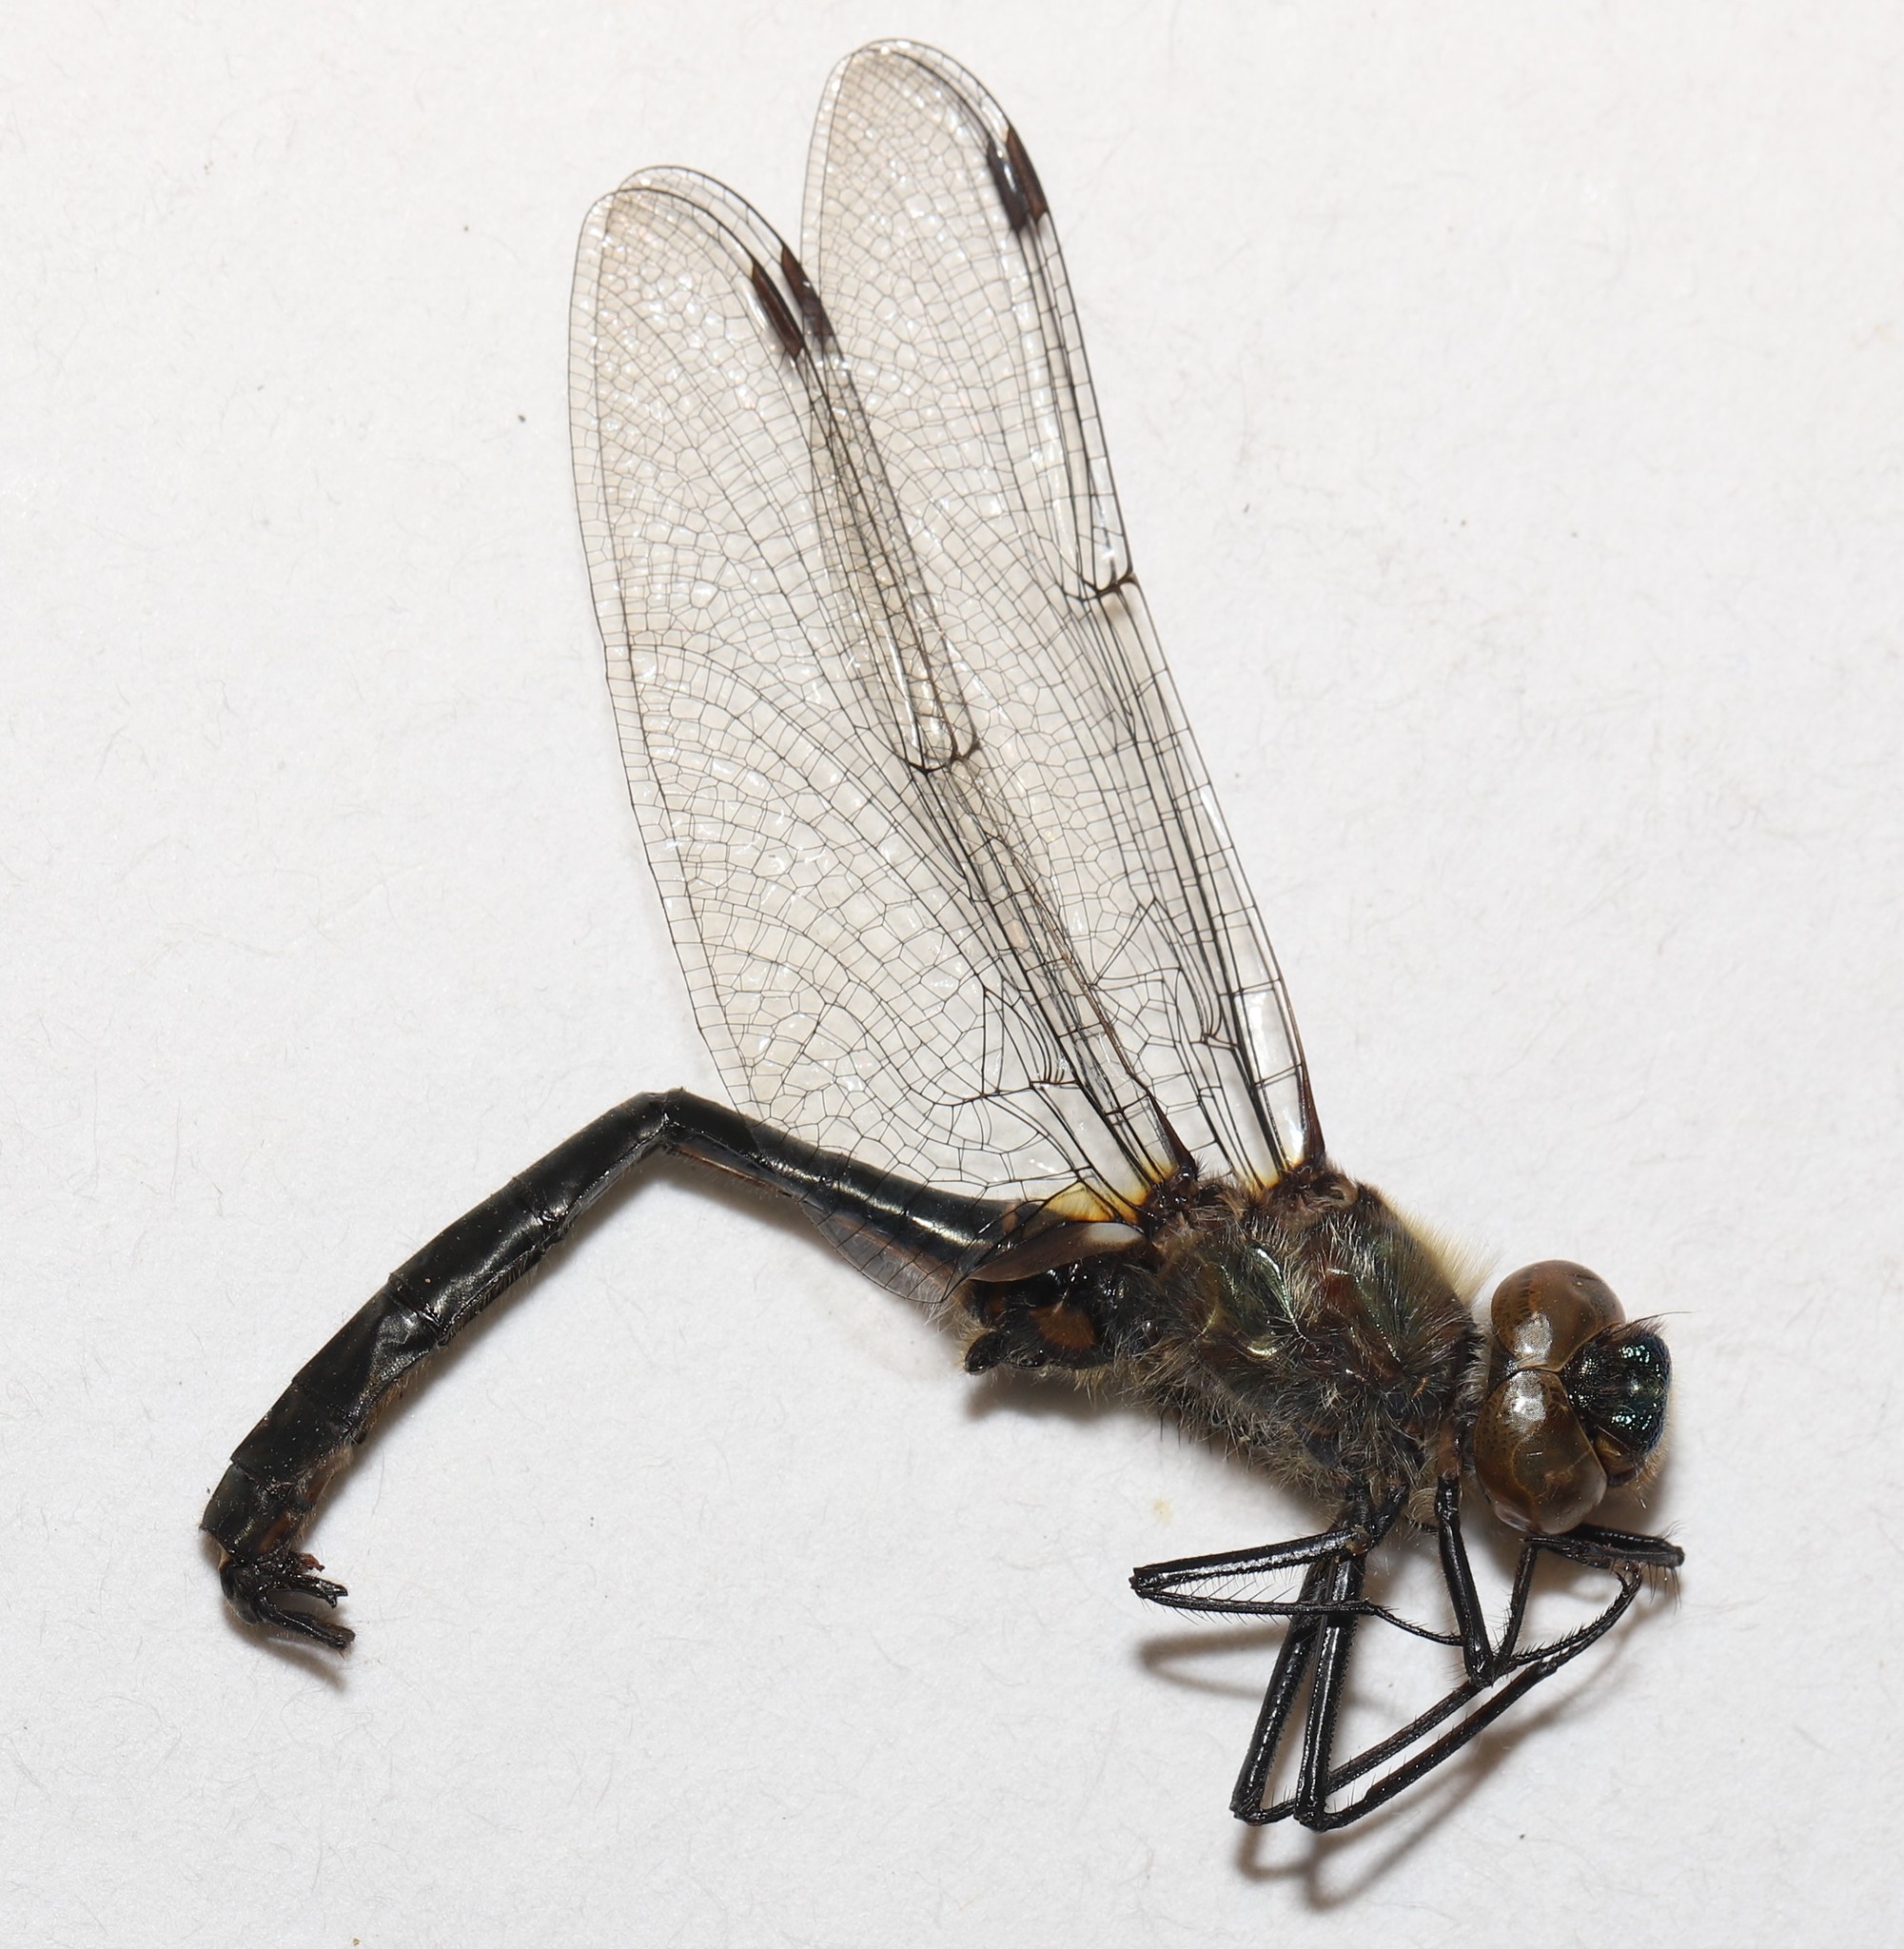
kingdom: Animalia
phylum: Arthropoda
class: Insecta
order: Odonata
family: Corduliidae
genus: Cordulia
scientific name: Cordulia shurtleffii
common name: American emerald
